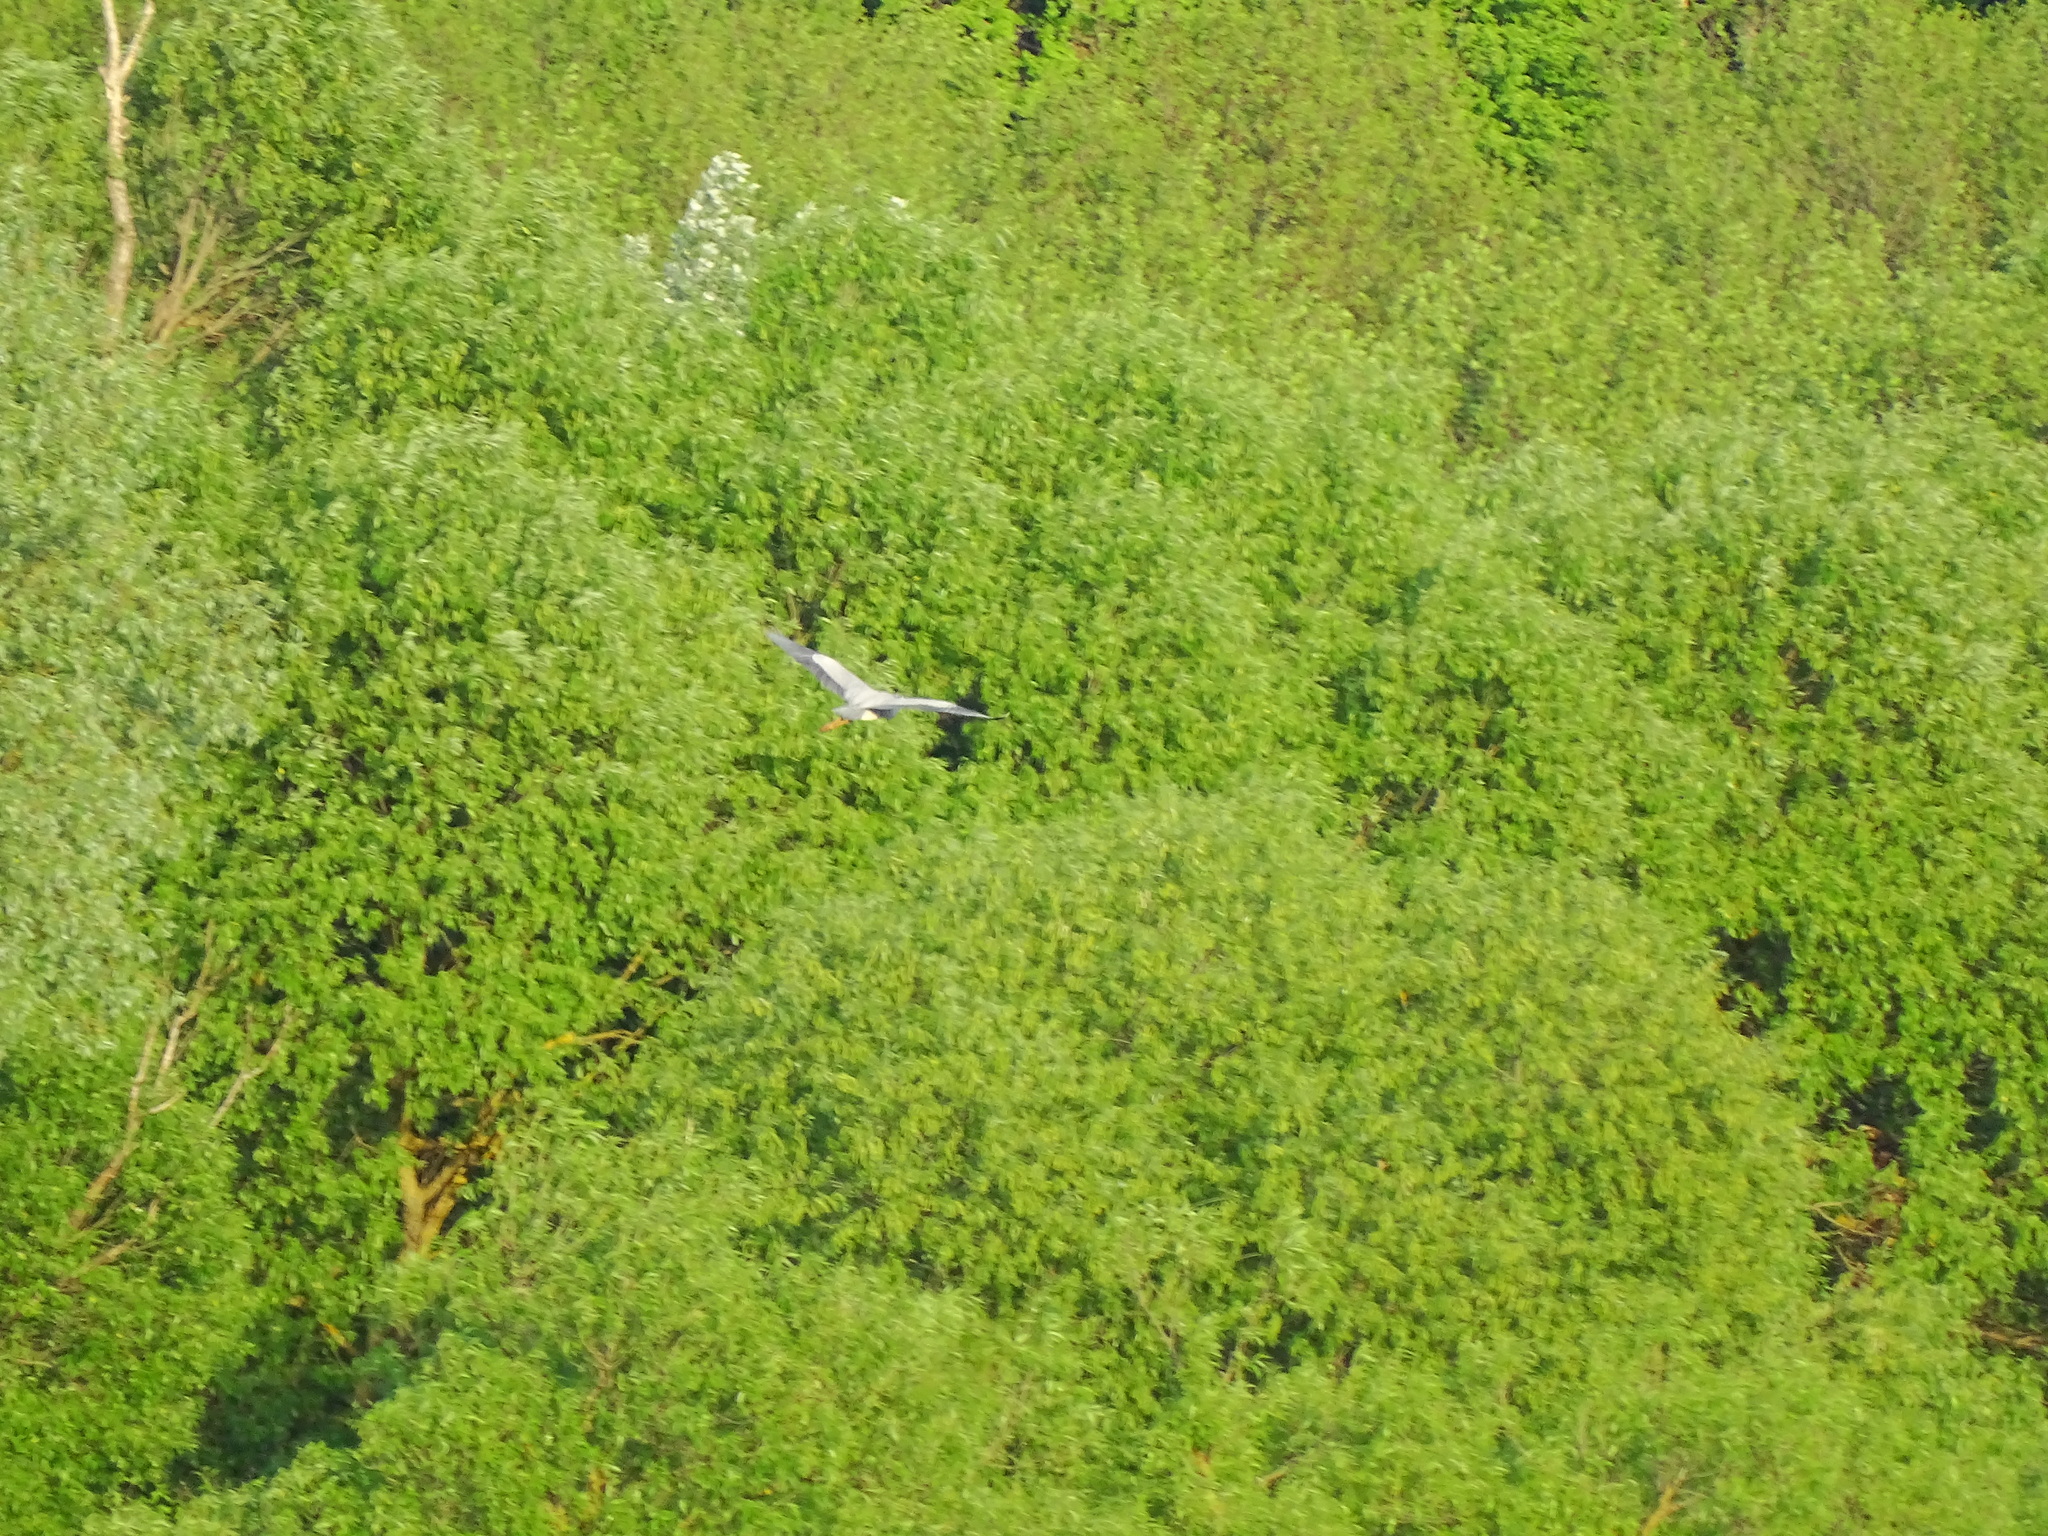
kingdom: Animalia
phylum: Chordata
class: Aves
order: Charadriiformes
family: Laridae
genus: Larus
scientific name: Larus canus
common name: Mew gull
